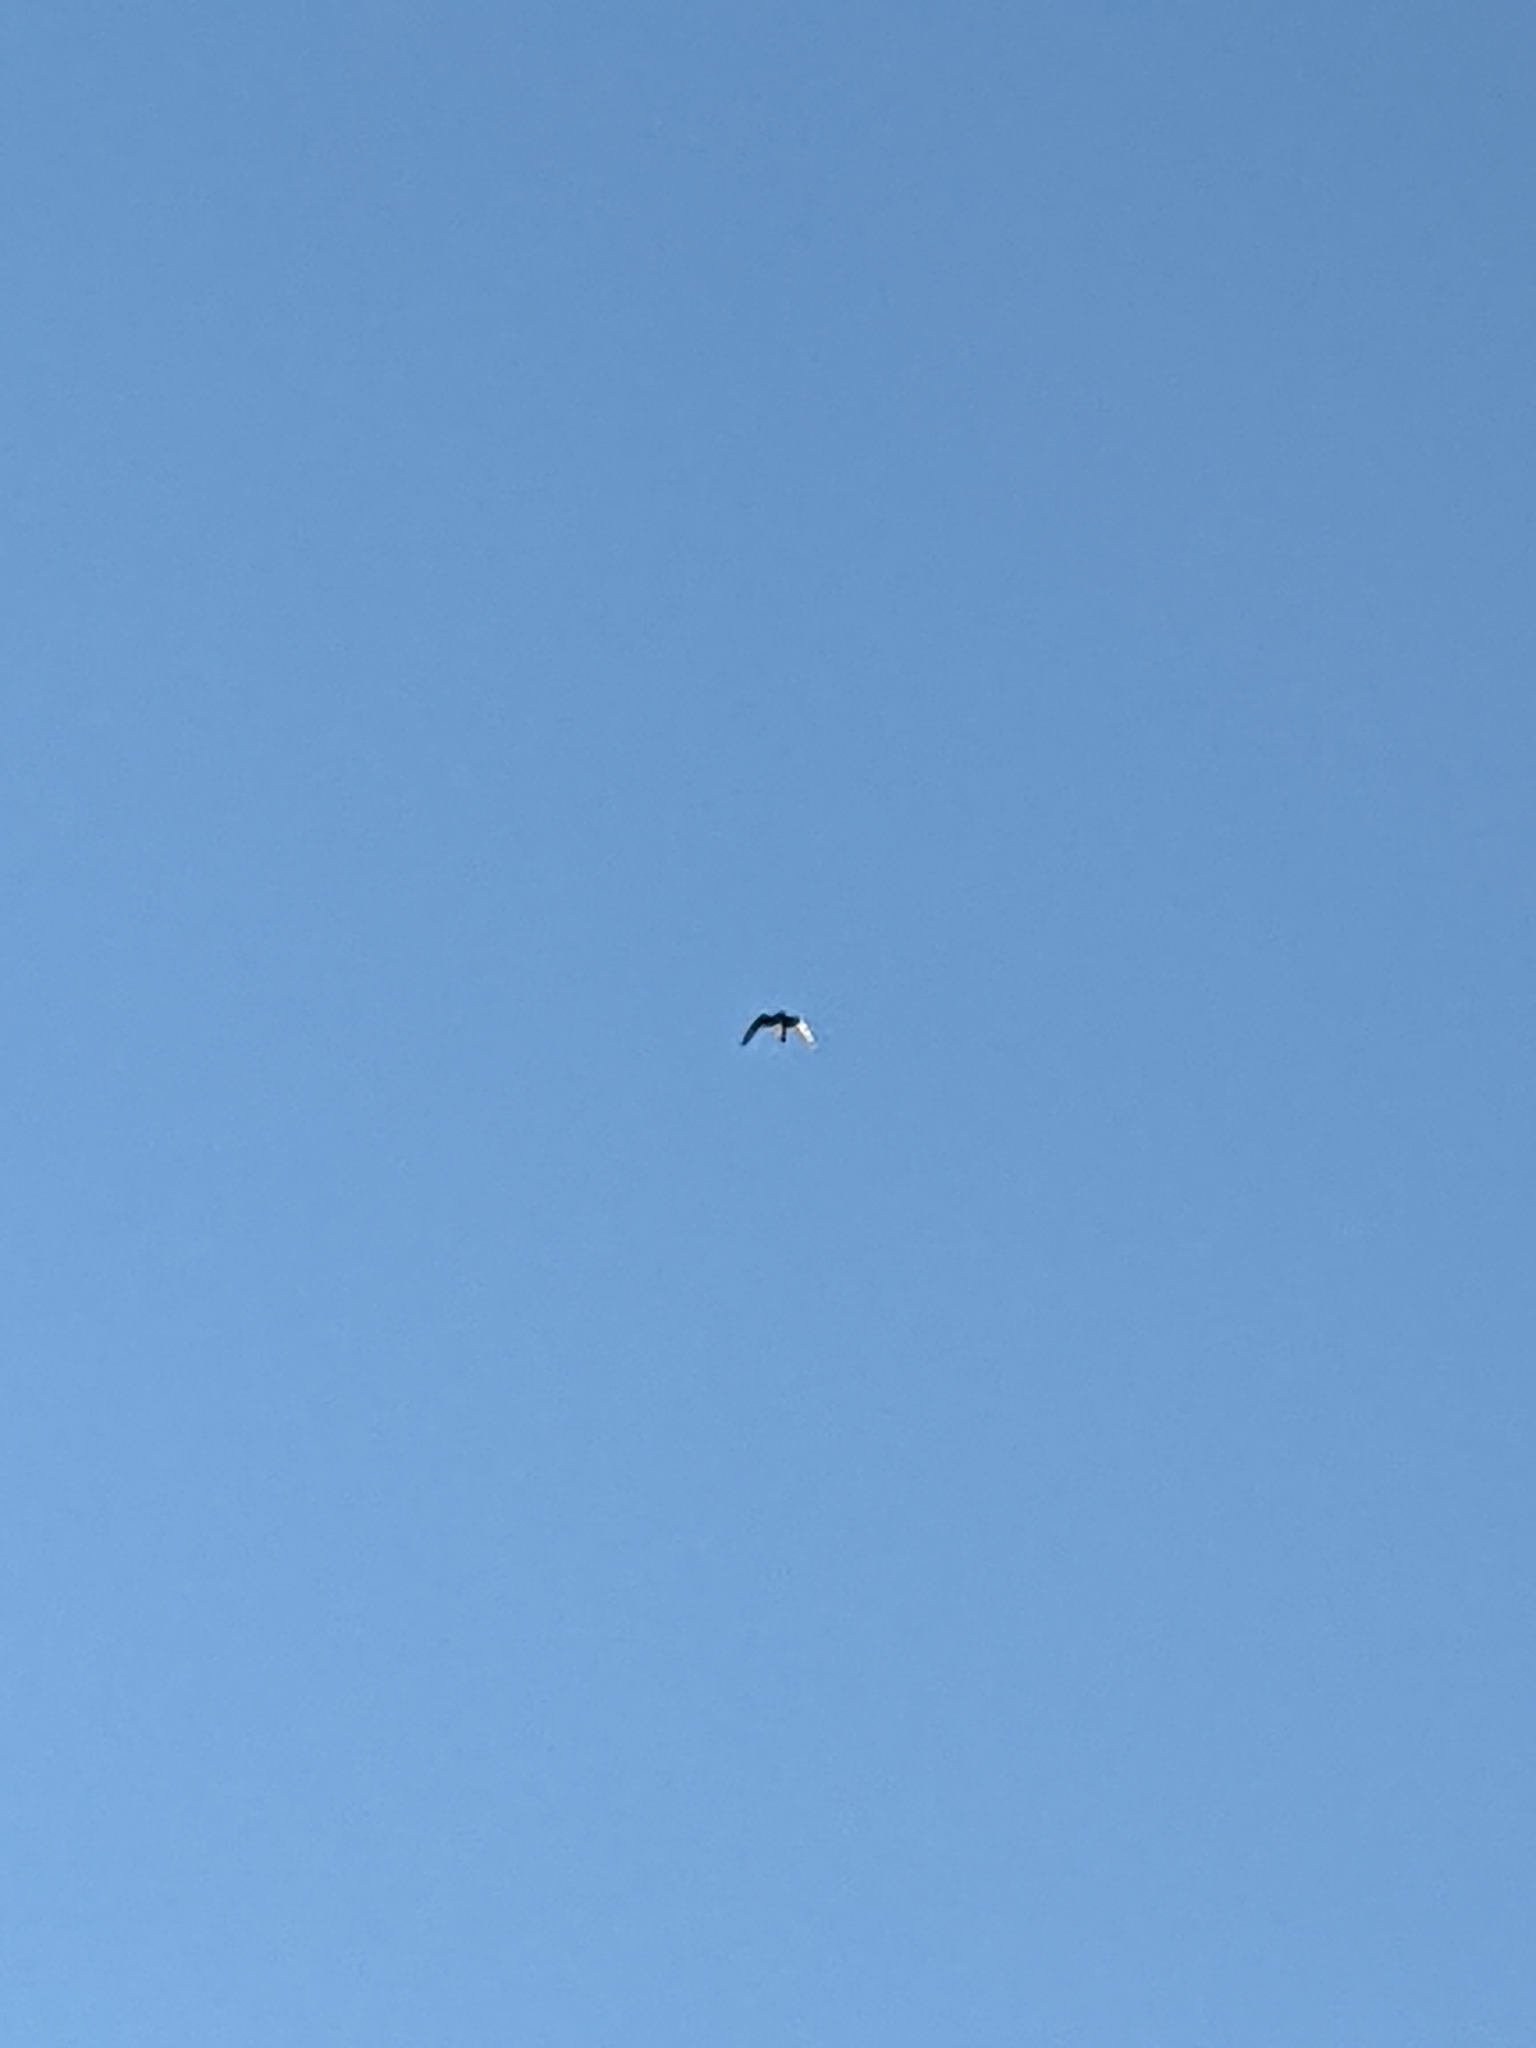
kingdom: Animalia
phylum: Chordata
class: Aves
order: Caprimulgiformes
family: Caprimulgidae
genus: Chordeiles
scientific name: Chordeiles minor
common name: Common nighthawk
